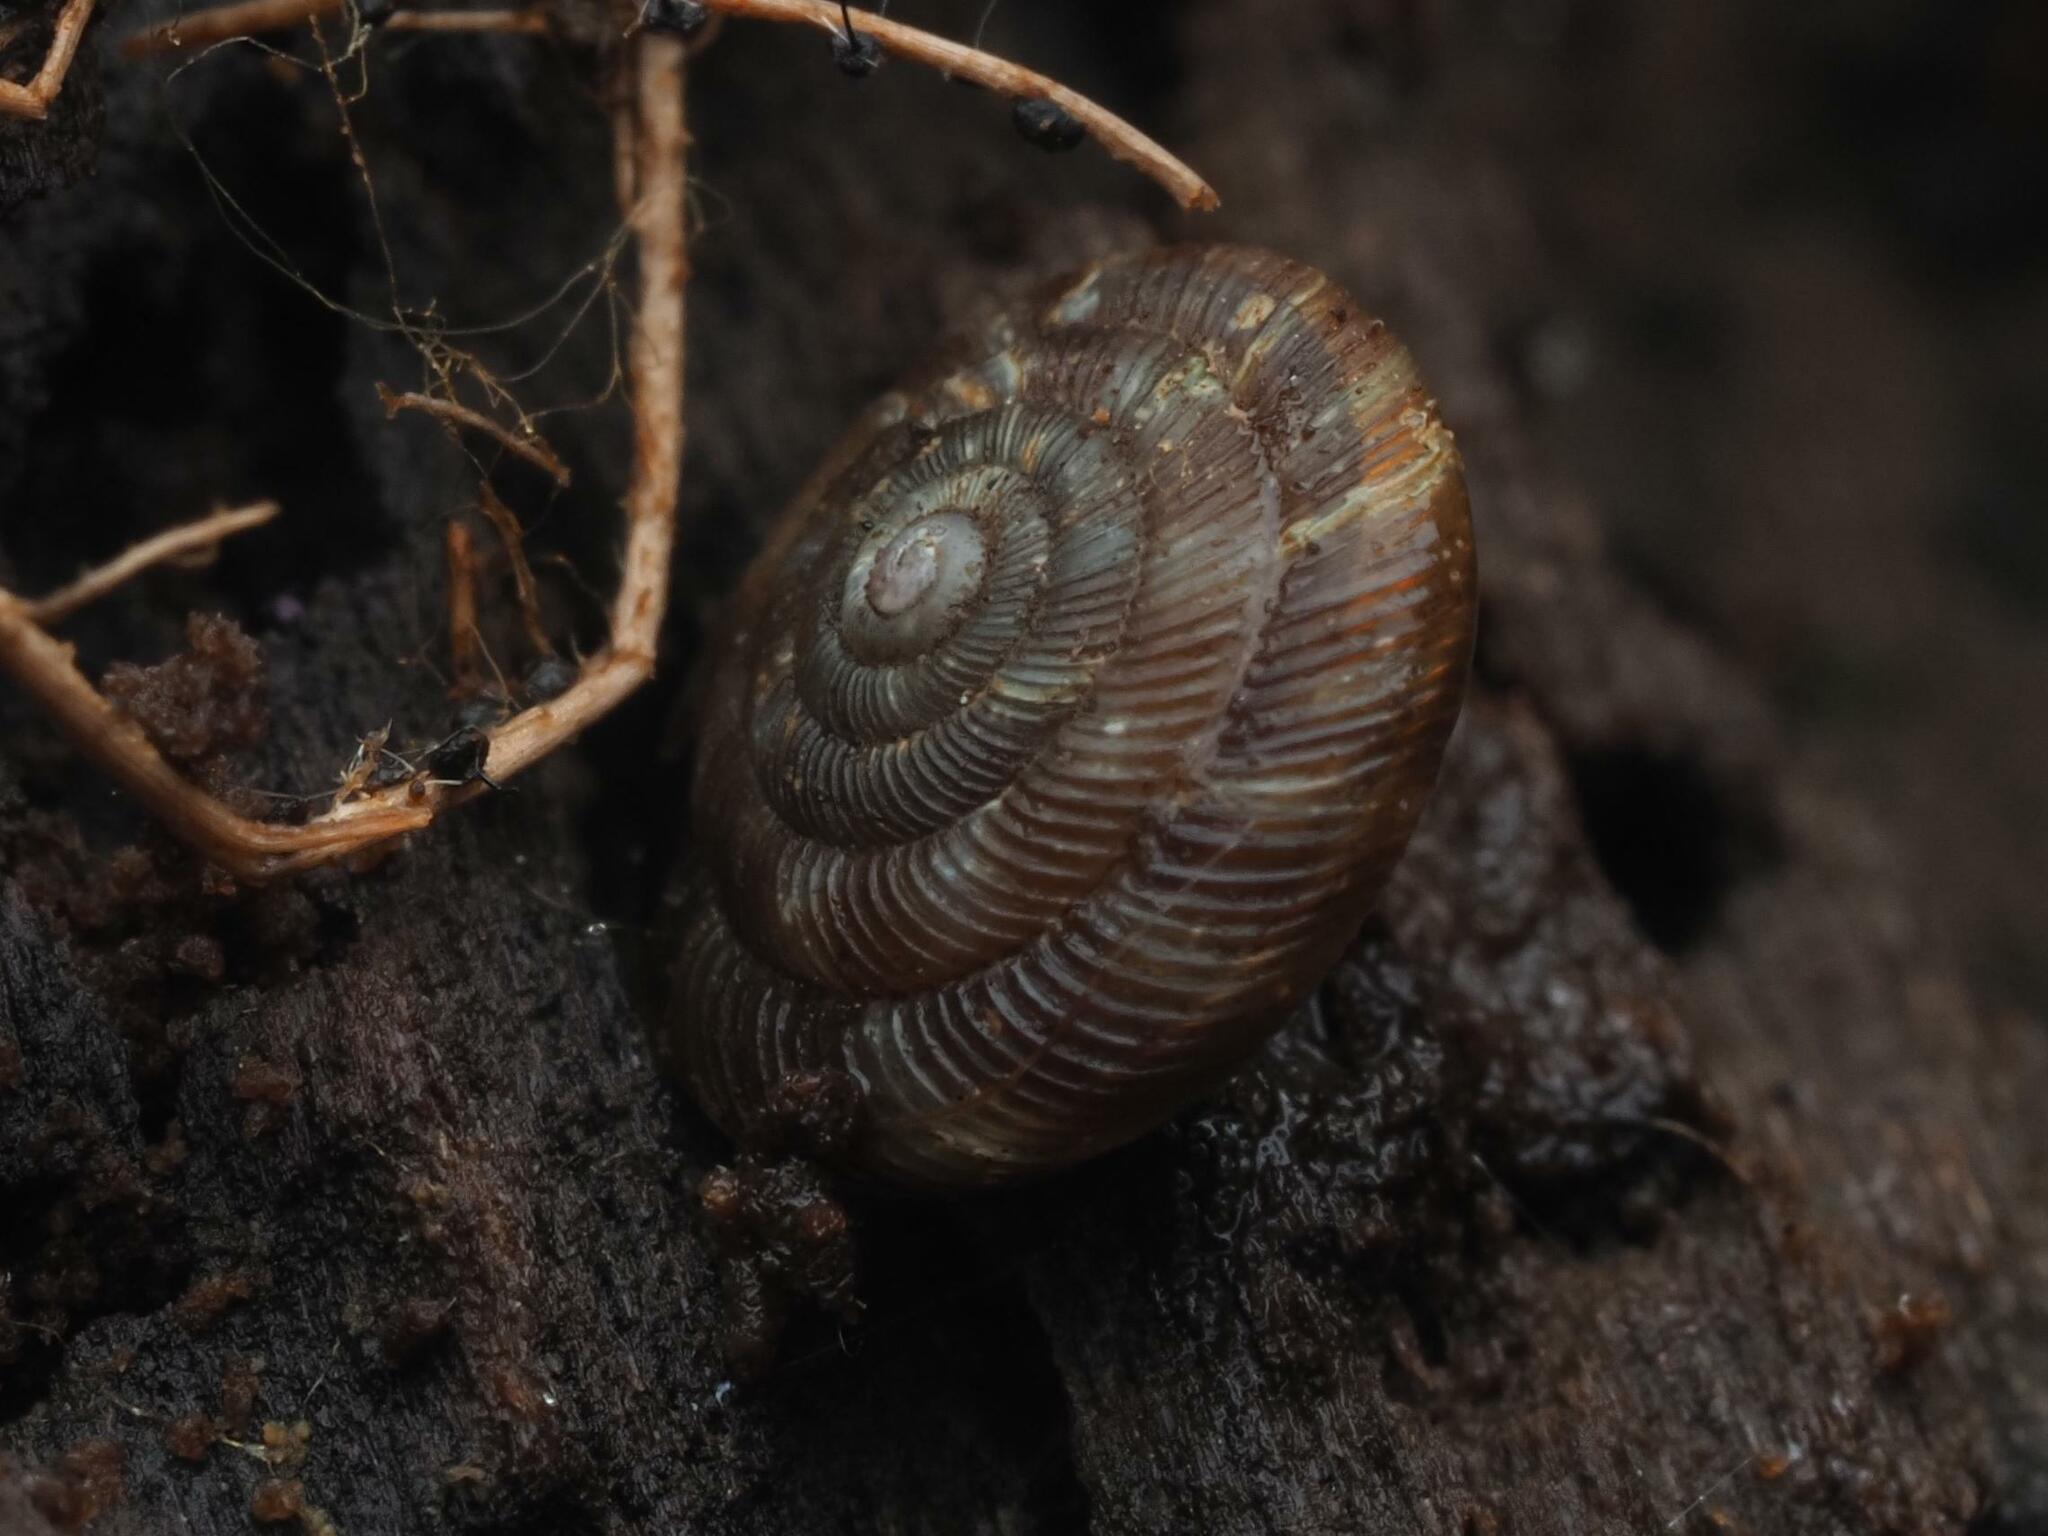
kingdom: Animalia
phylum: Mollusca
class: Gastropoda
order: Stylommatophora
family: Discidae
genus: Discus
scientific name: Discus rotundatus
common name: Rounded snail
